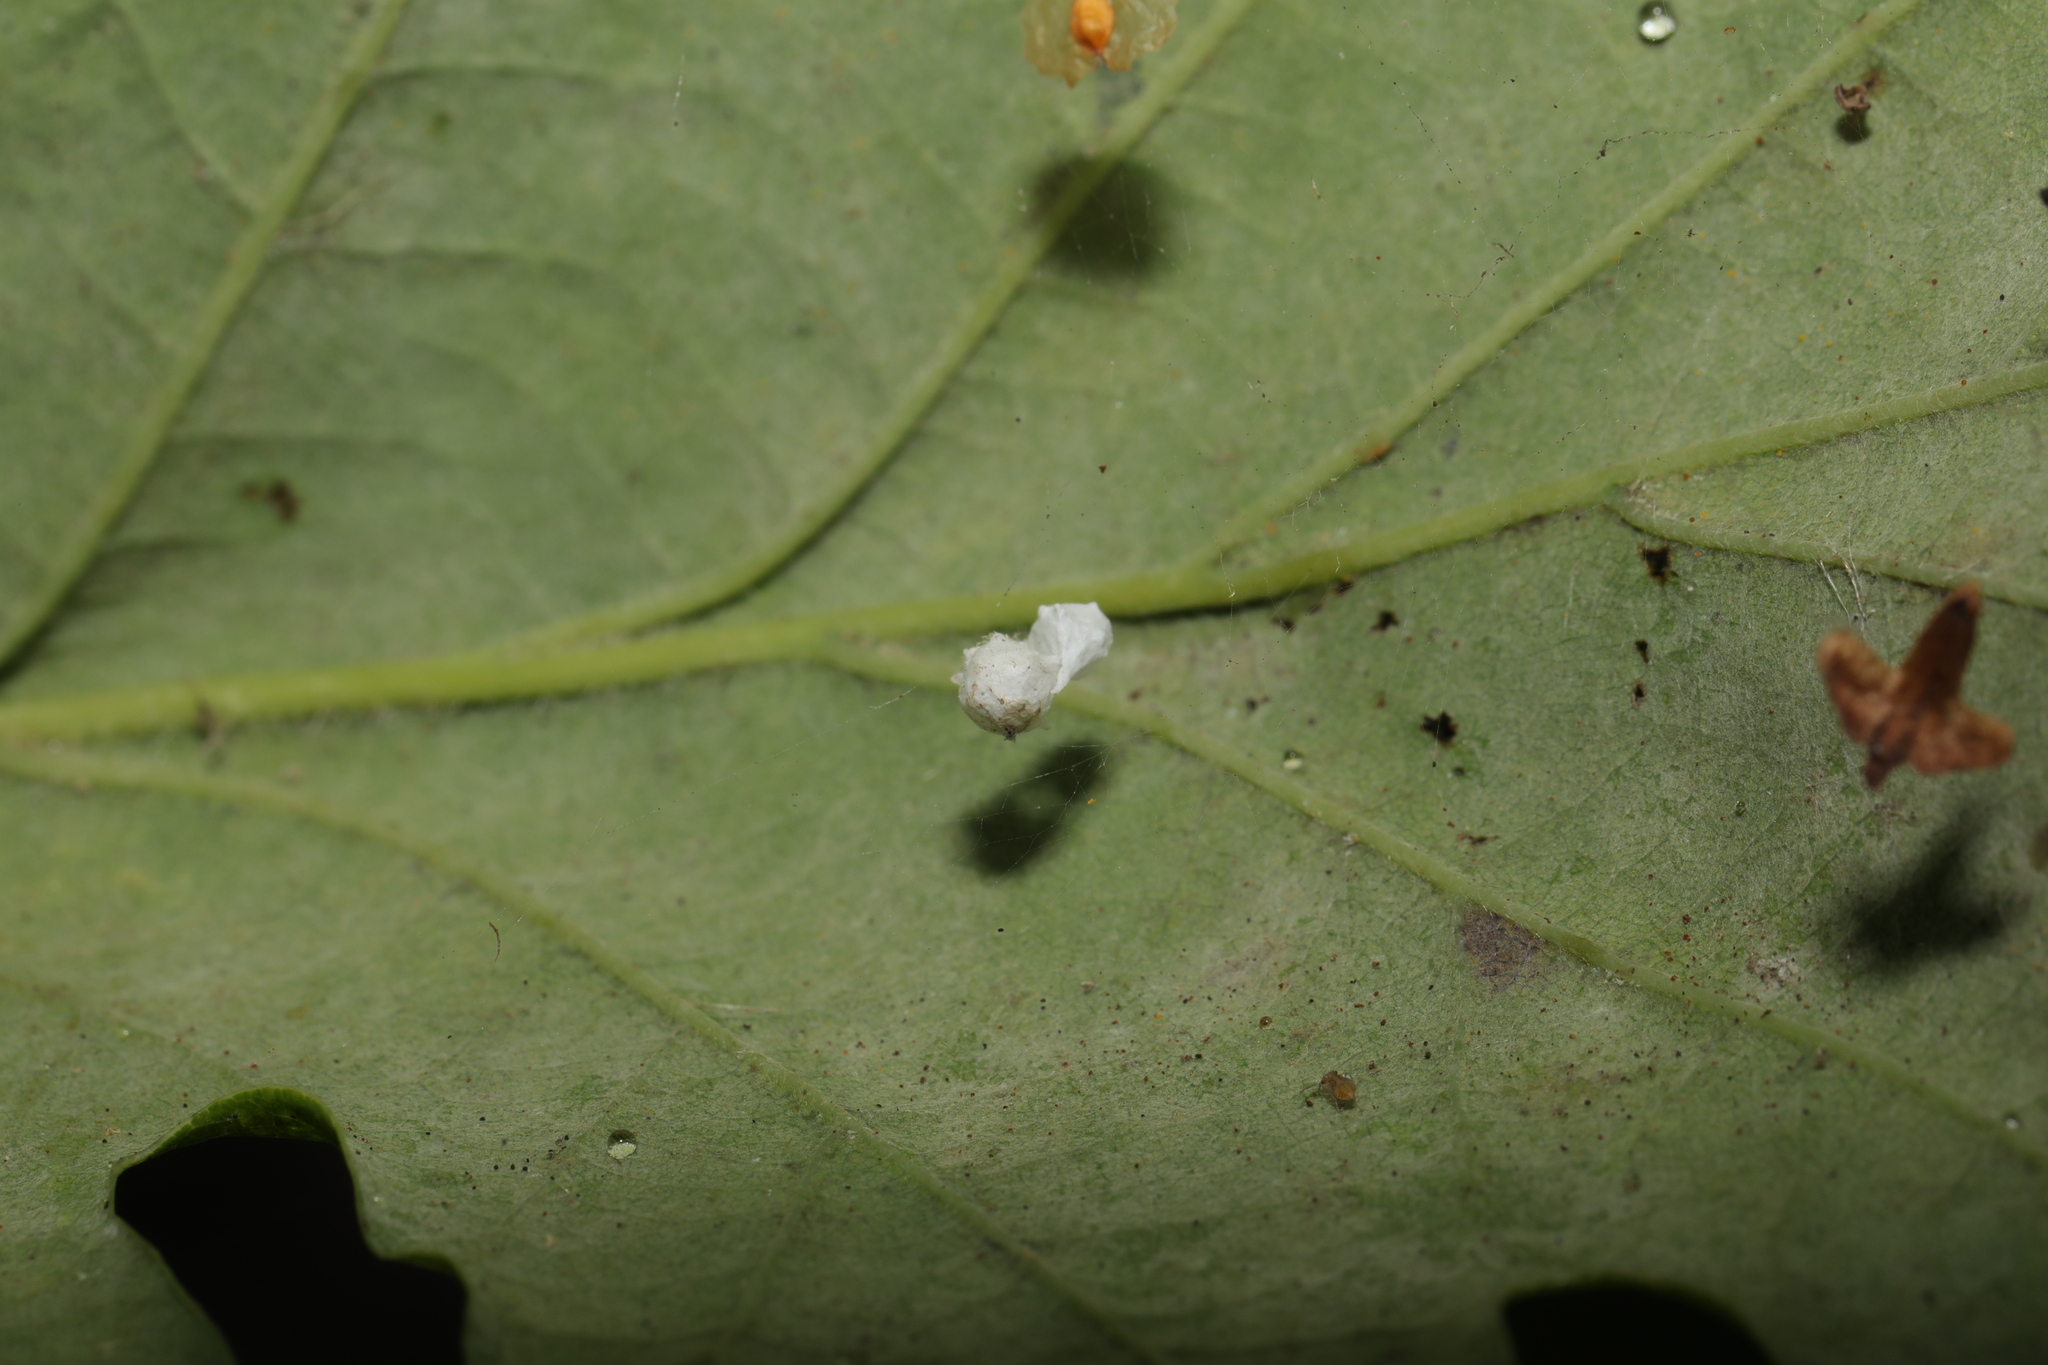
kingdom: Animalia
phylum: Arthropoda
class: Arachnida
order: Araneae
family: Theridiidae
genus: Paidiscura
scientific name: Paidiscura pallens
